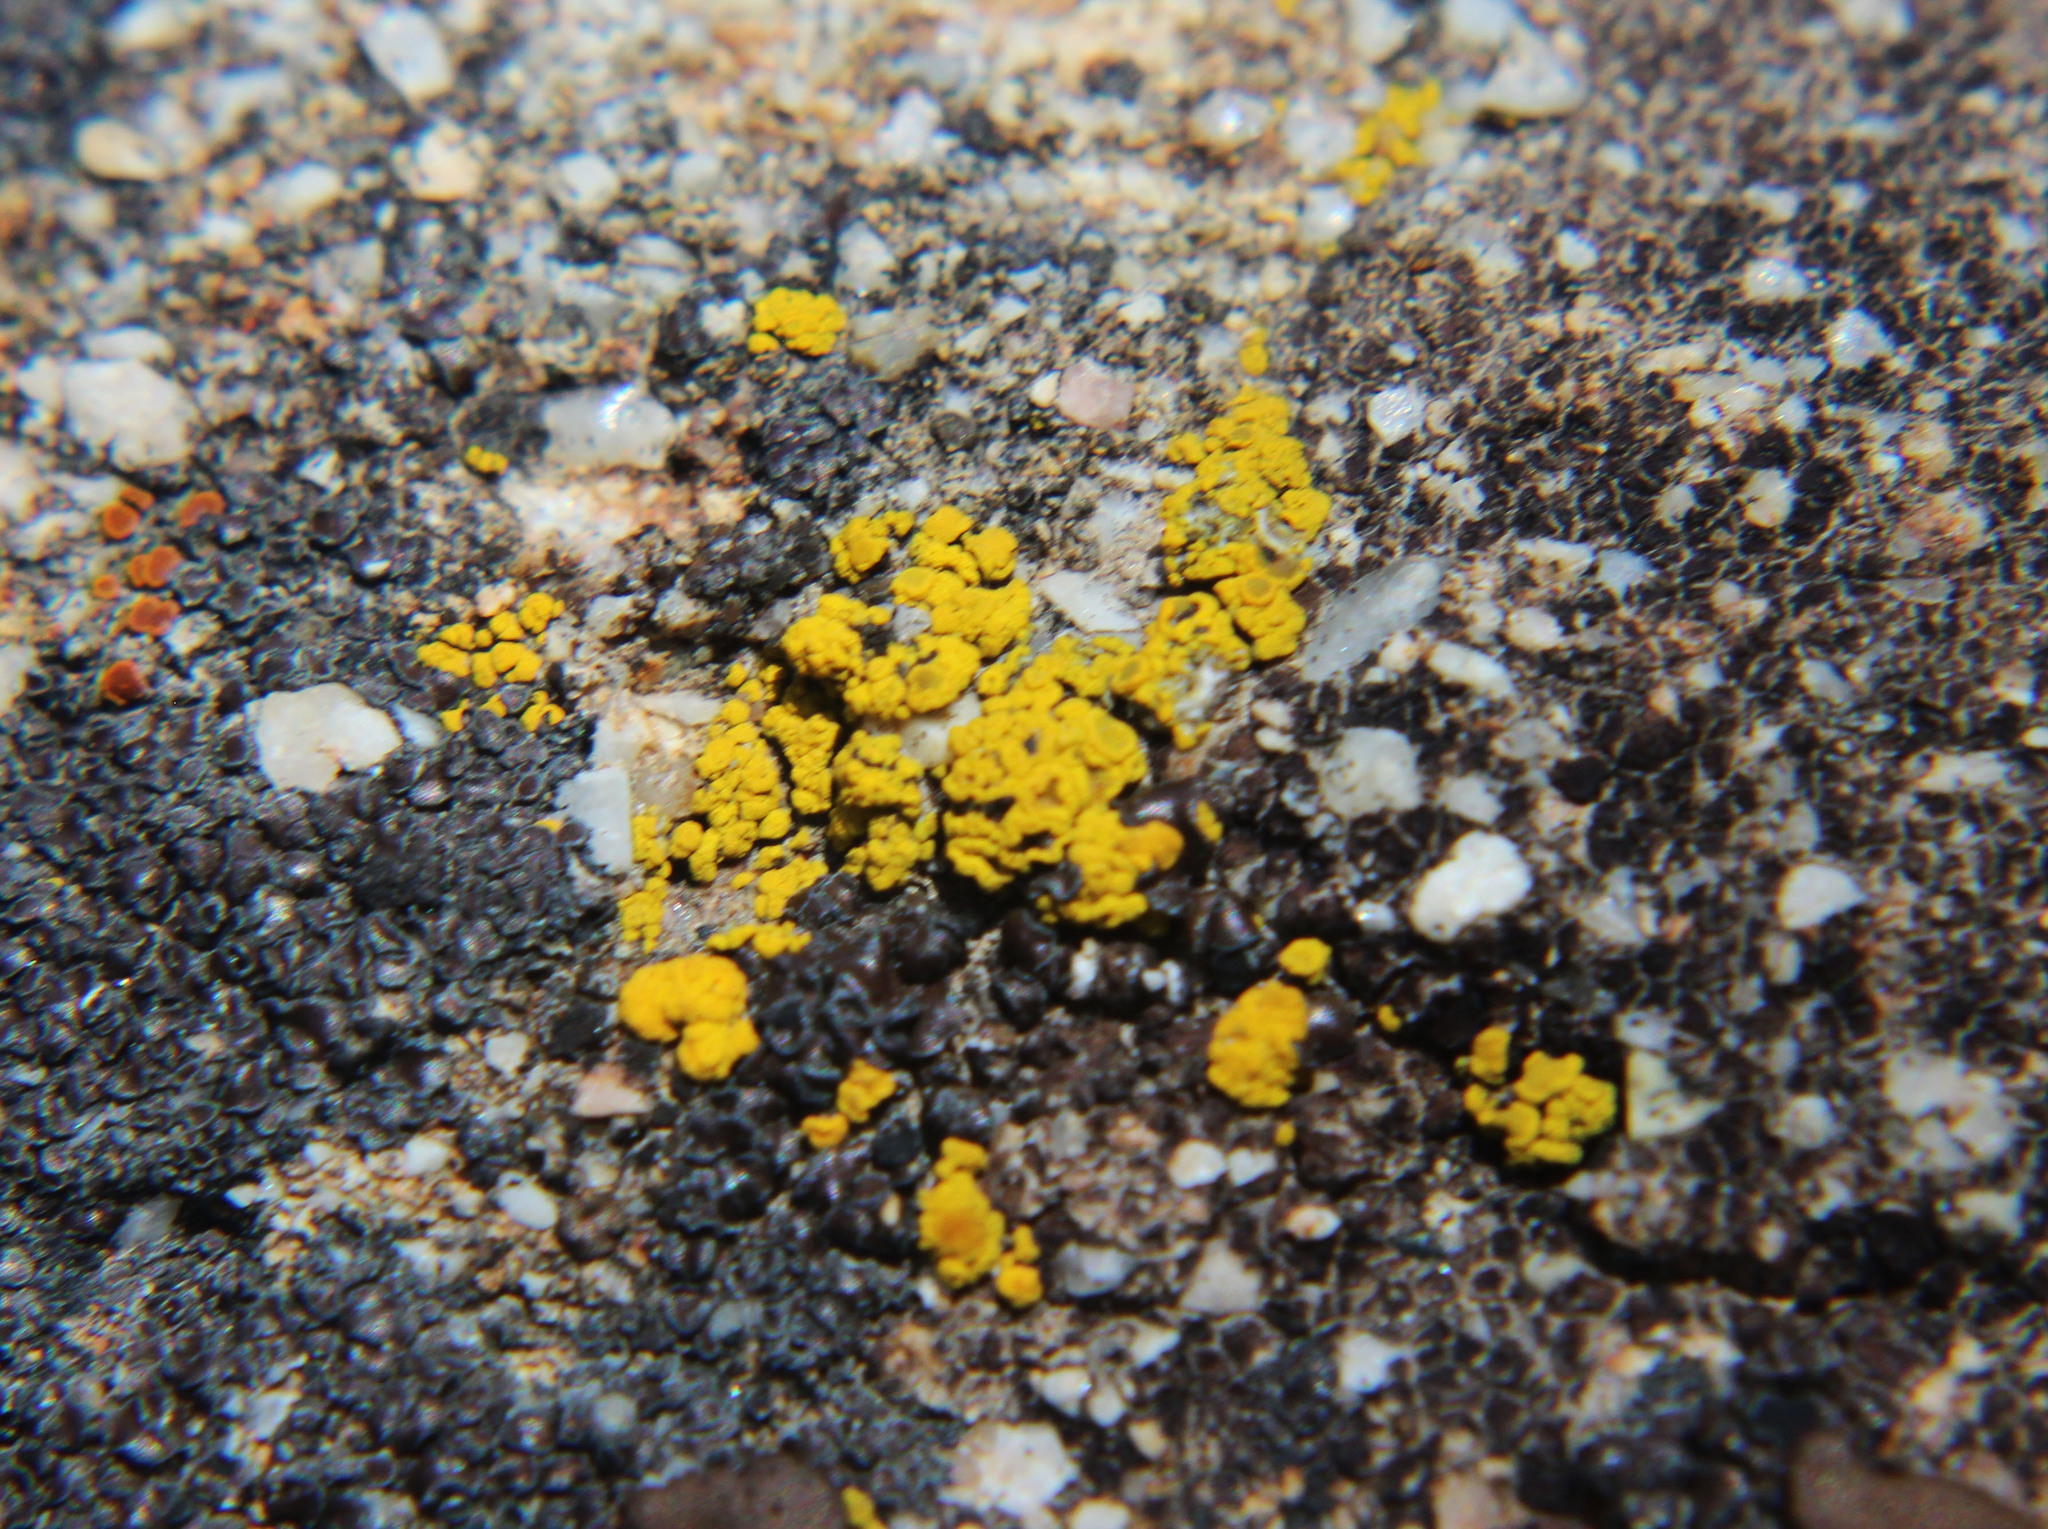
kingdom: Fungi
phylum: Ascomycota
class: Candelariomycetes
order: Candelariales
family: Candelariaceae
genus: Candelariella
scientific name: Candelariella rosulans
